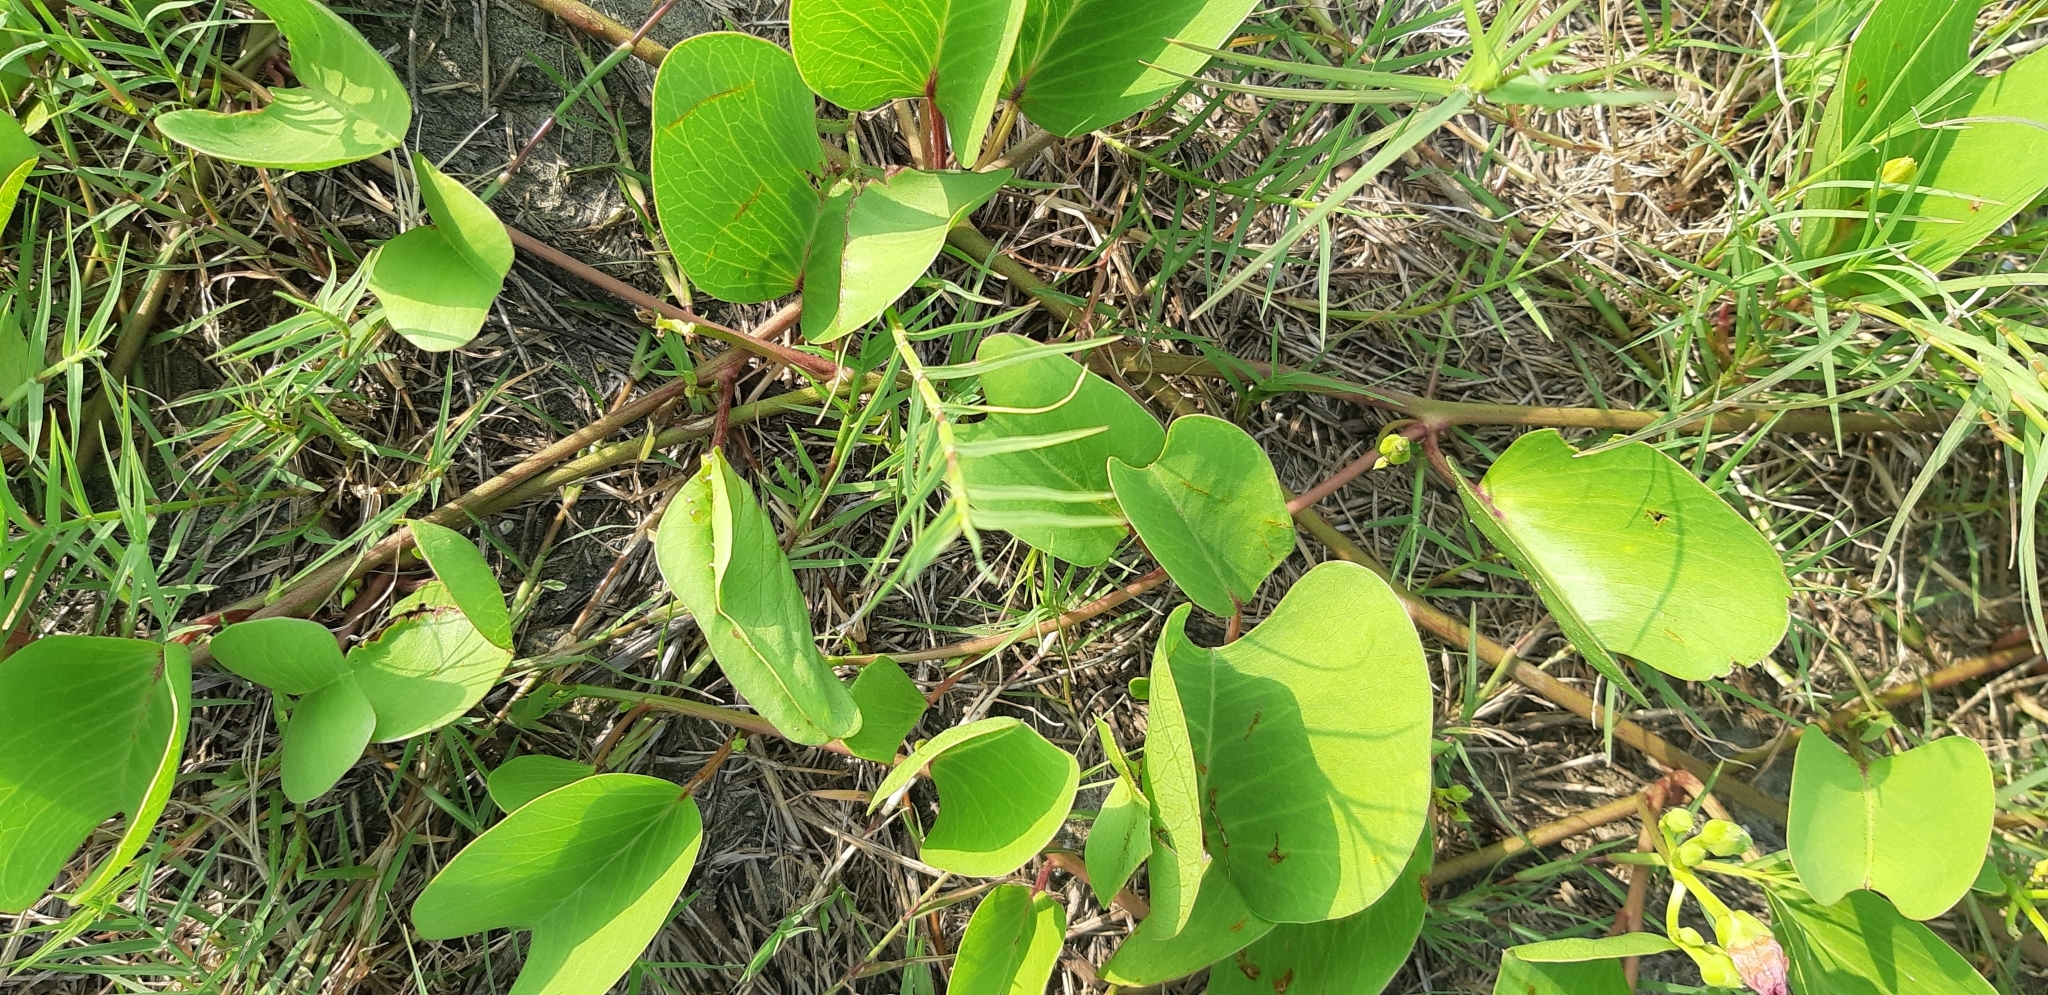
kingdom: Plantae
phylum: Tracheophyta
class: Magnoliopsida
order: Solanales
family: Convolvulaceae
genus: Ipomoea
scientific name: Ipomoea pes-caprae
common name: Beach morning glory
